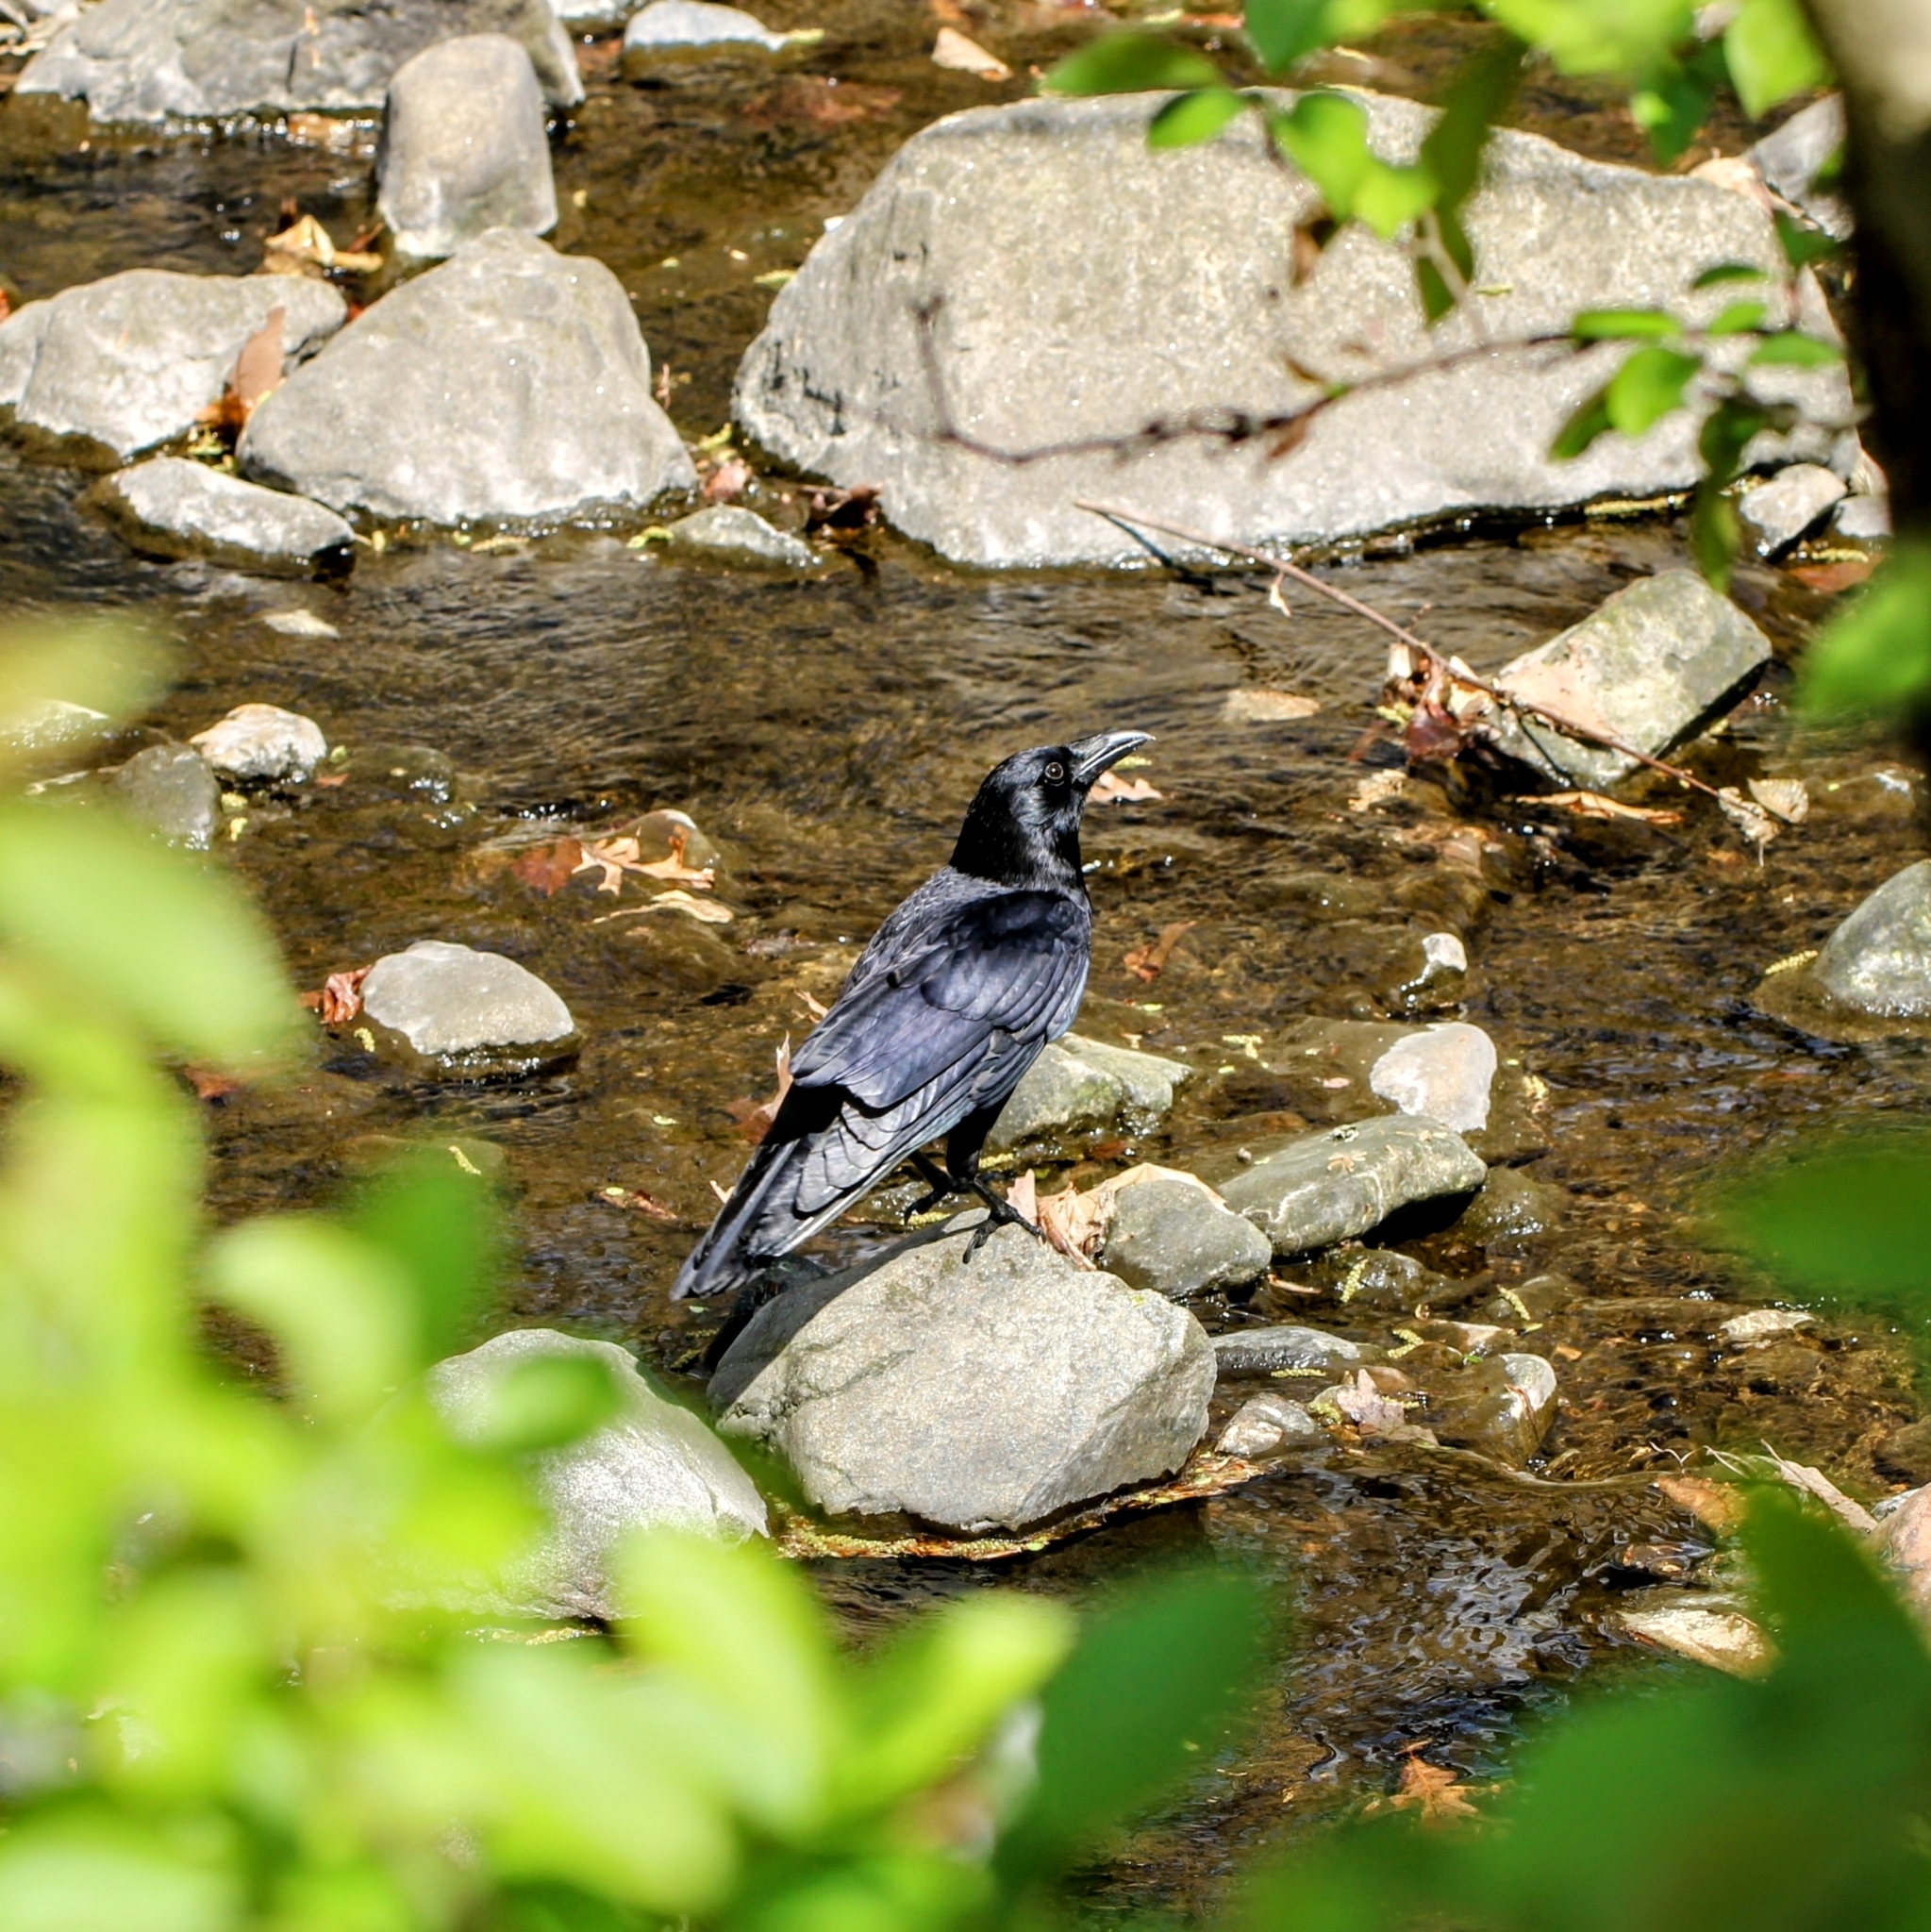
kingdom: Animalia
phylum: Chordata
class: Aves
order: Passeriformes
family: Corvidae
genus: Corvus
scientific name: Corvus corax
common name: Common raven
